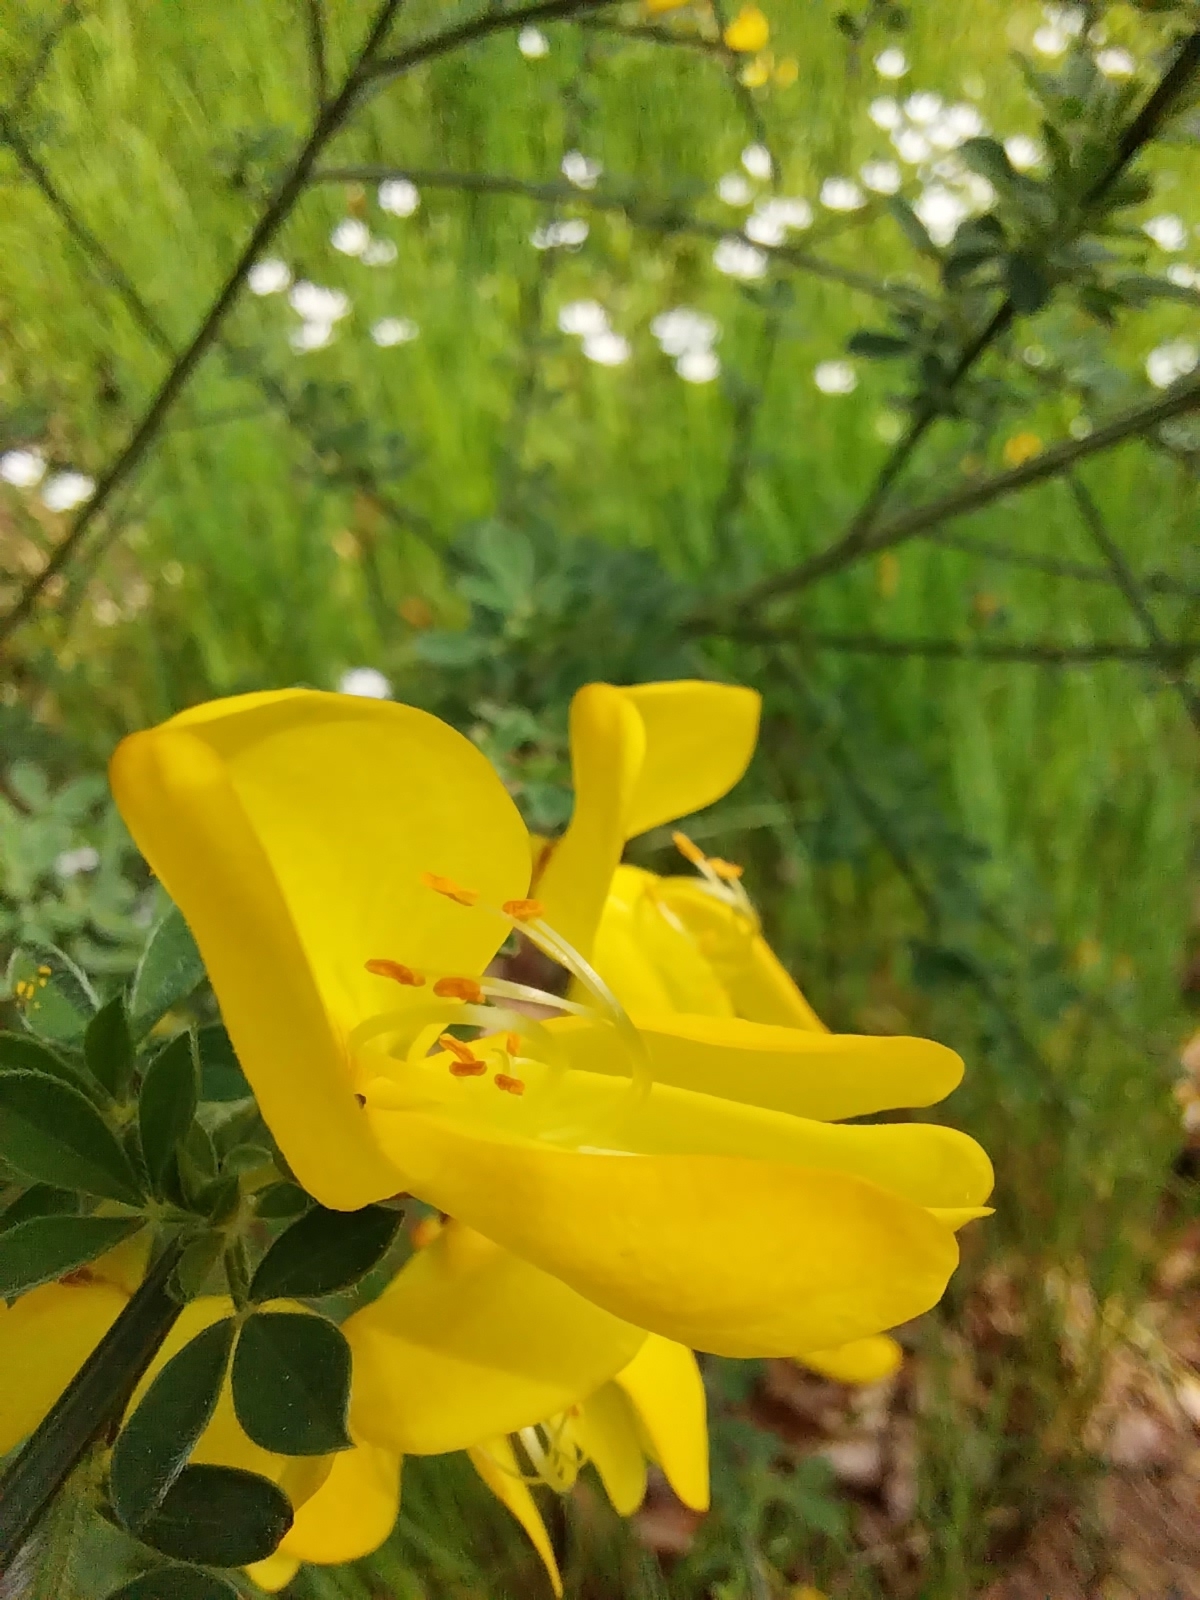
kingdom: Plantae
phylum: Tracheophyta
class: Magnoliopsida
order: Fabales
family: Fabaceae
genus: Cytisus
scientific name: Cytisus scoparius
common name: Scotch broom
